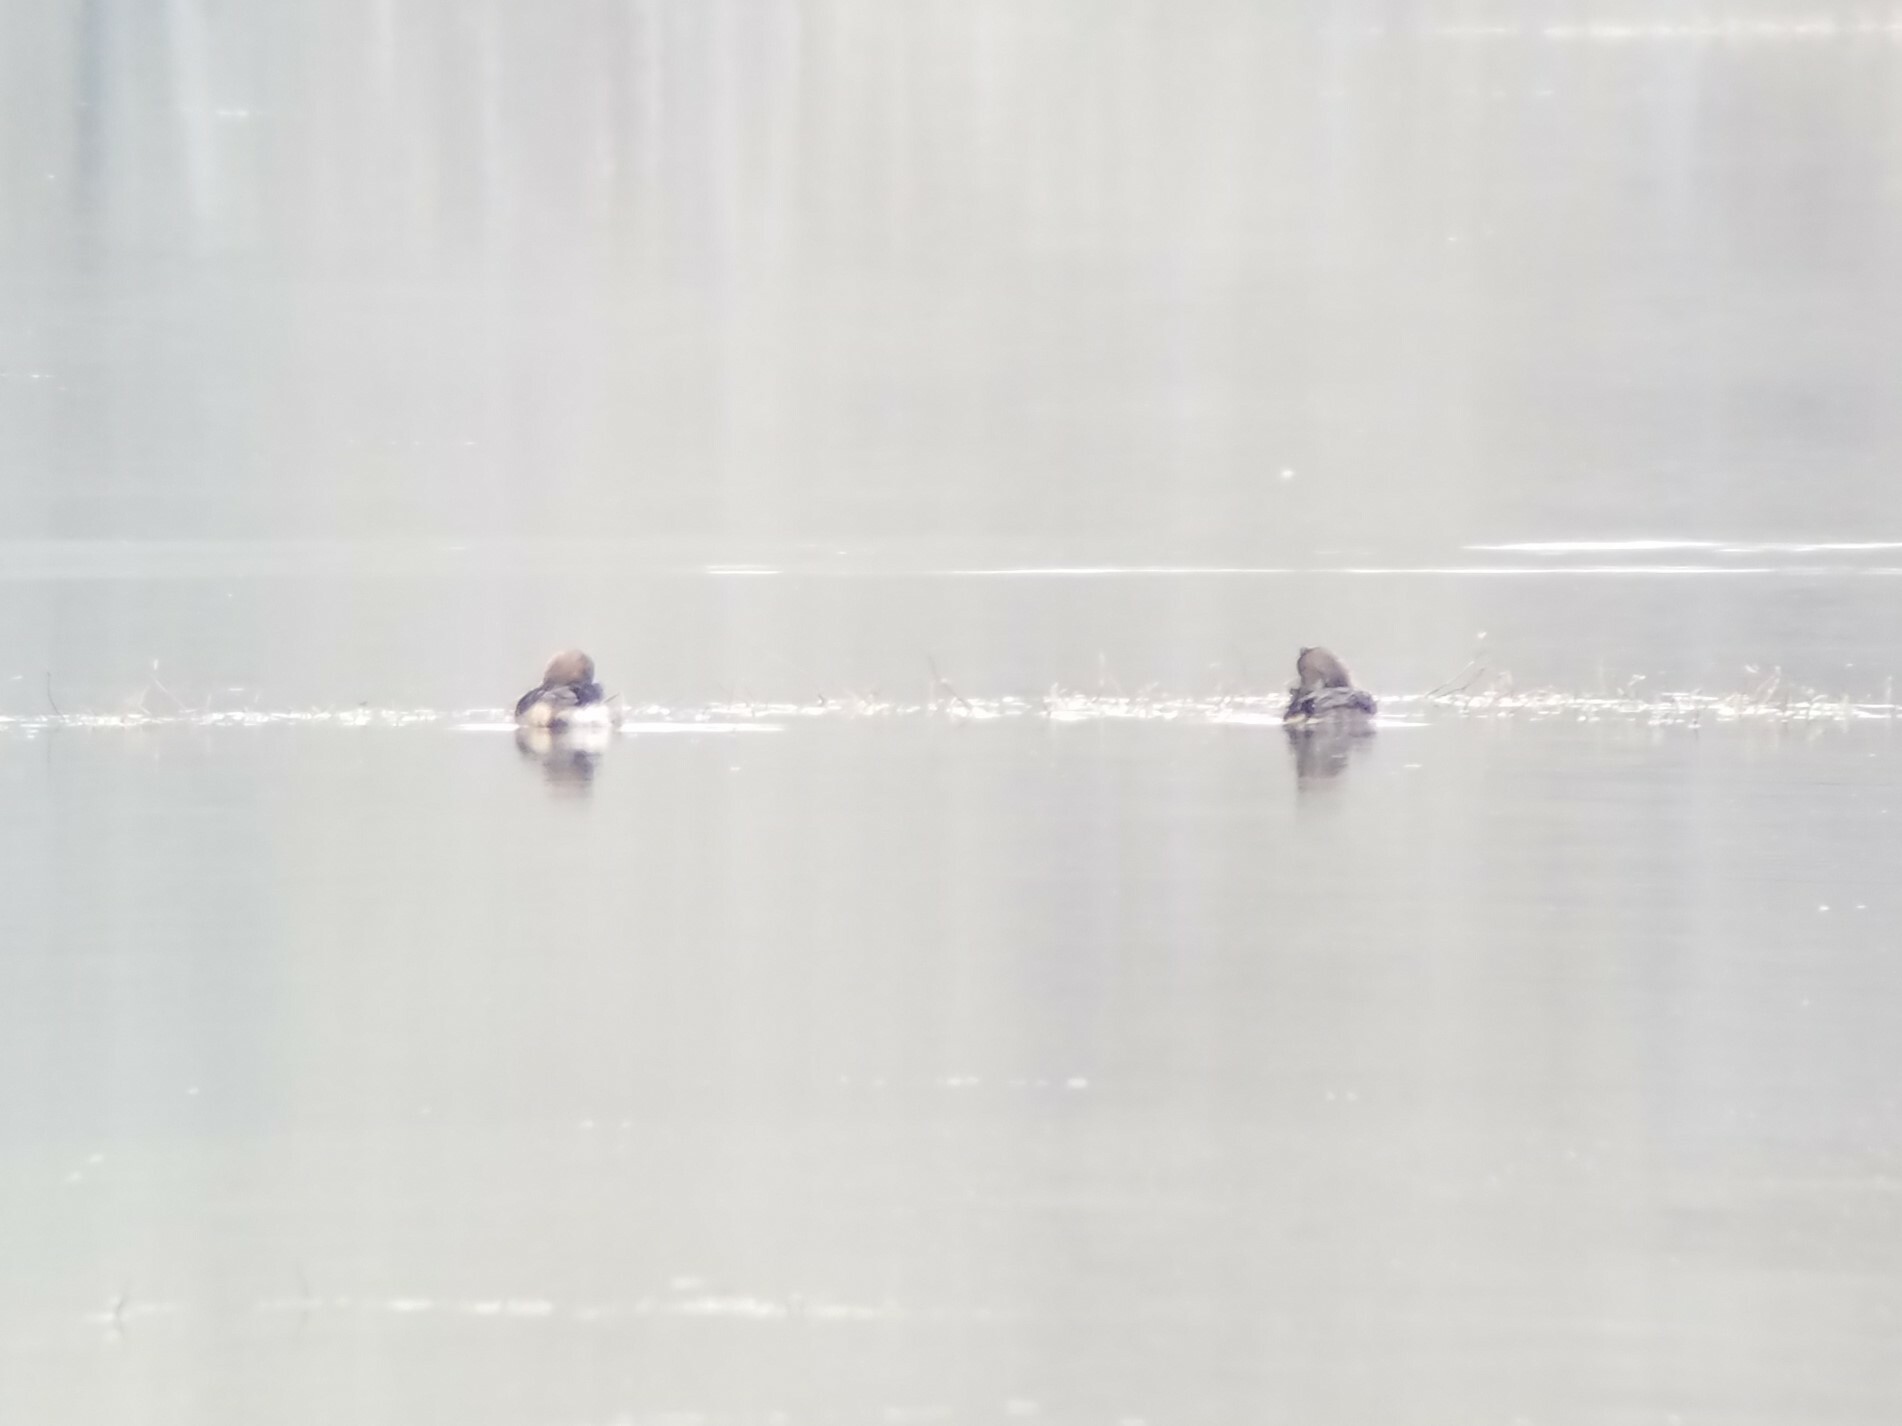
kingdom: Animalia
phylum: Chordata
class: Aves
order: Podicipediformes
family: Podicipedidae
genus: Podilymbus
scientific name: Podilymbus podiceps
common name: Pied-billed grebe
